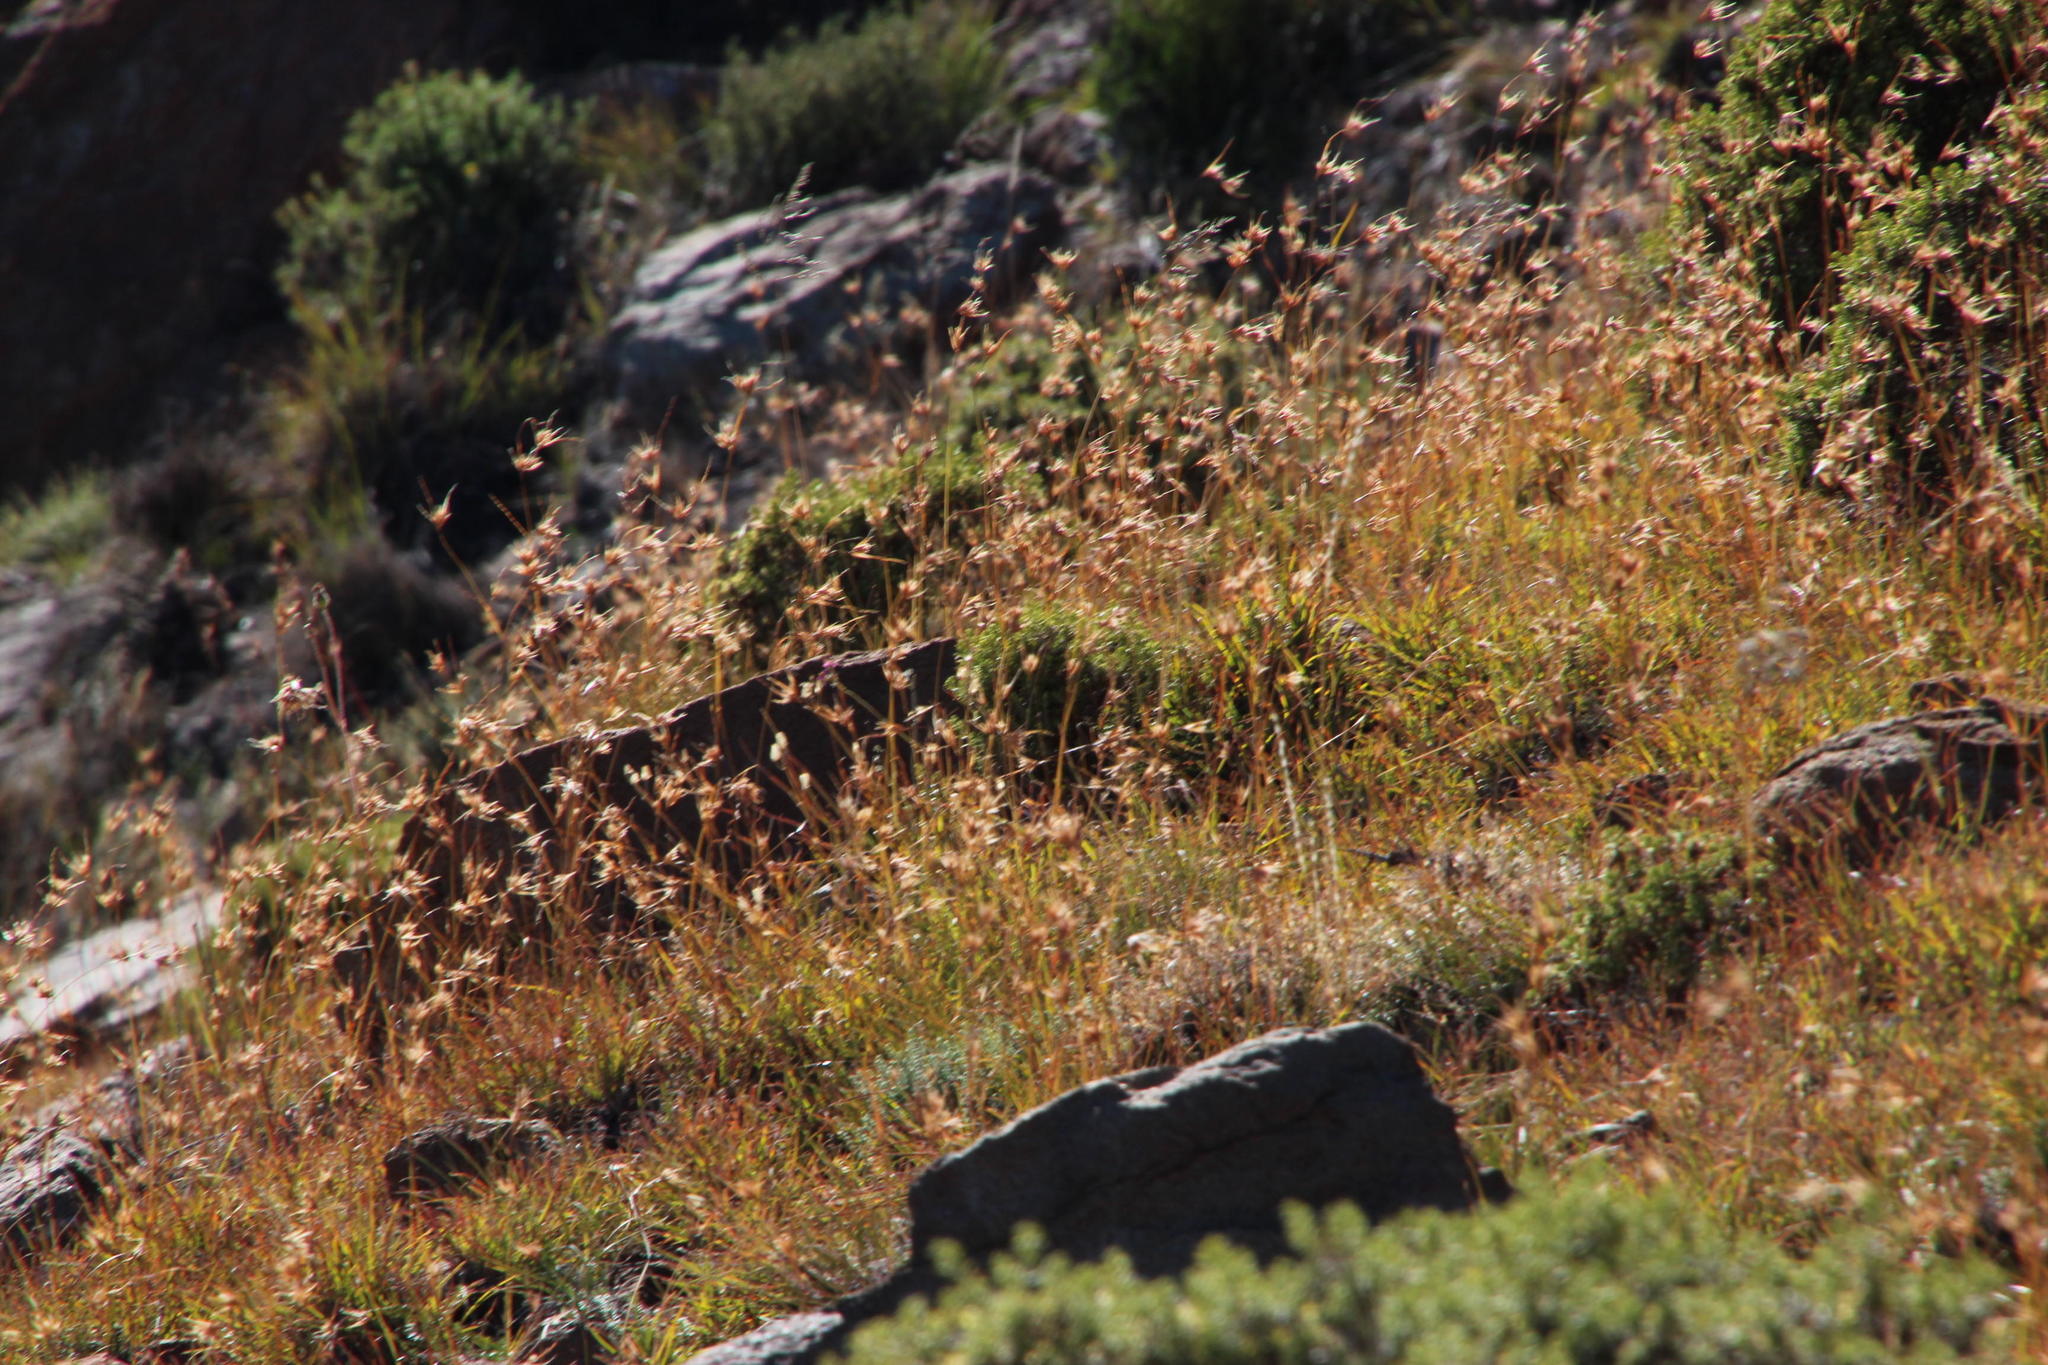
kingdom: Plantae
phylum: Tracheophyta
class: Liliopsida
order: Poales
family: Poaceae
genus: Themeda
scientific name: Themeda triandra
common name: Kangaroo grass
